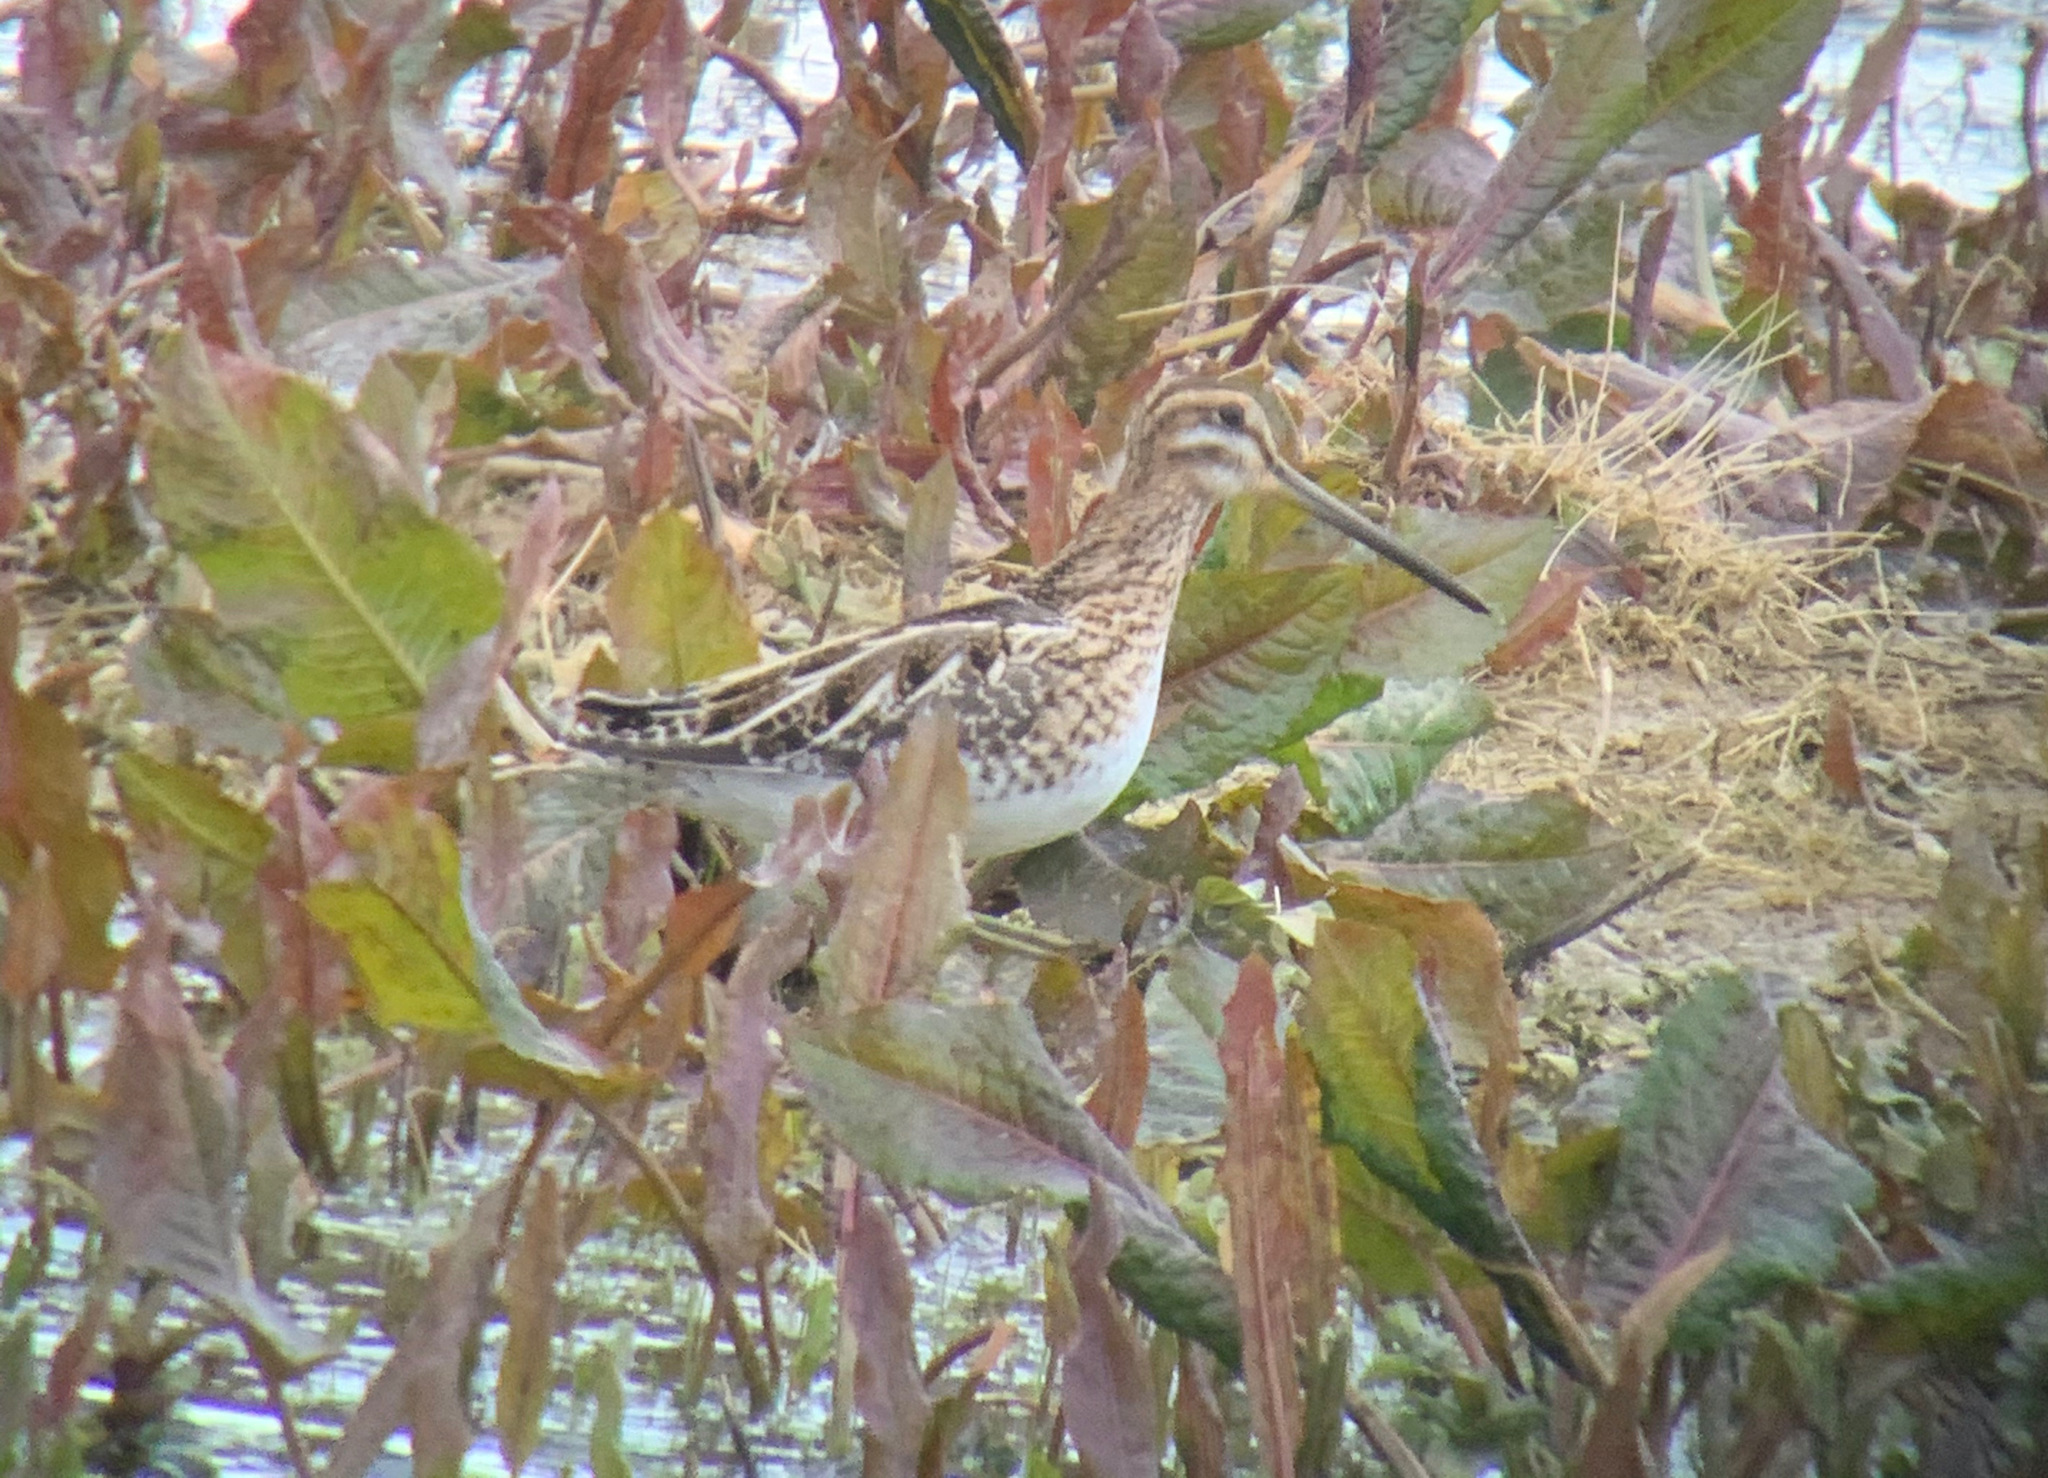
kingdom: Animalia
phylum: Chordata
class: Aves
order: Charadriiformes
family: Scolopacidae
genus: Gallinago
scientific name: Gallinago gallinago
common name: Common snipe
